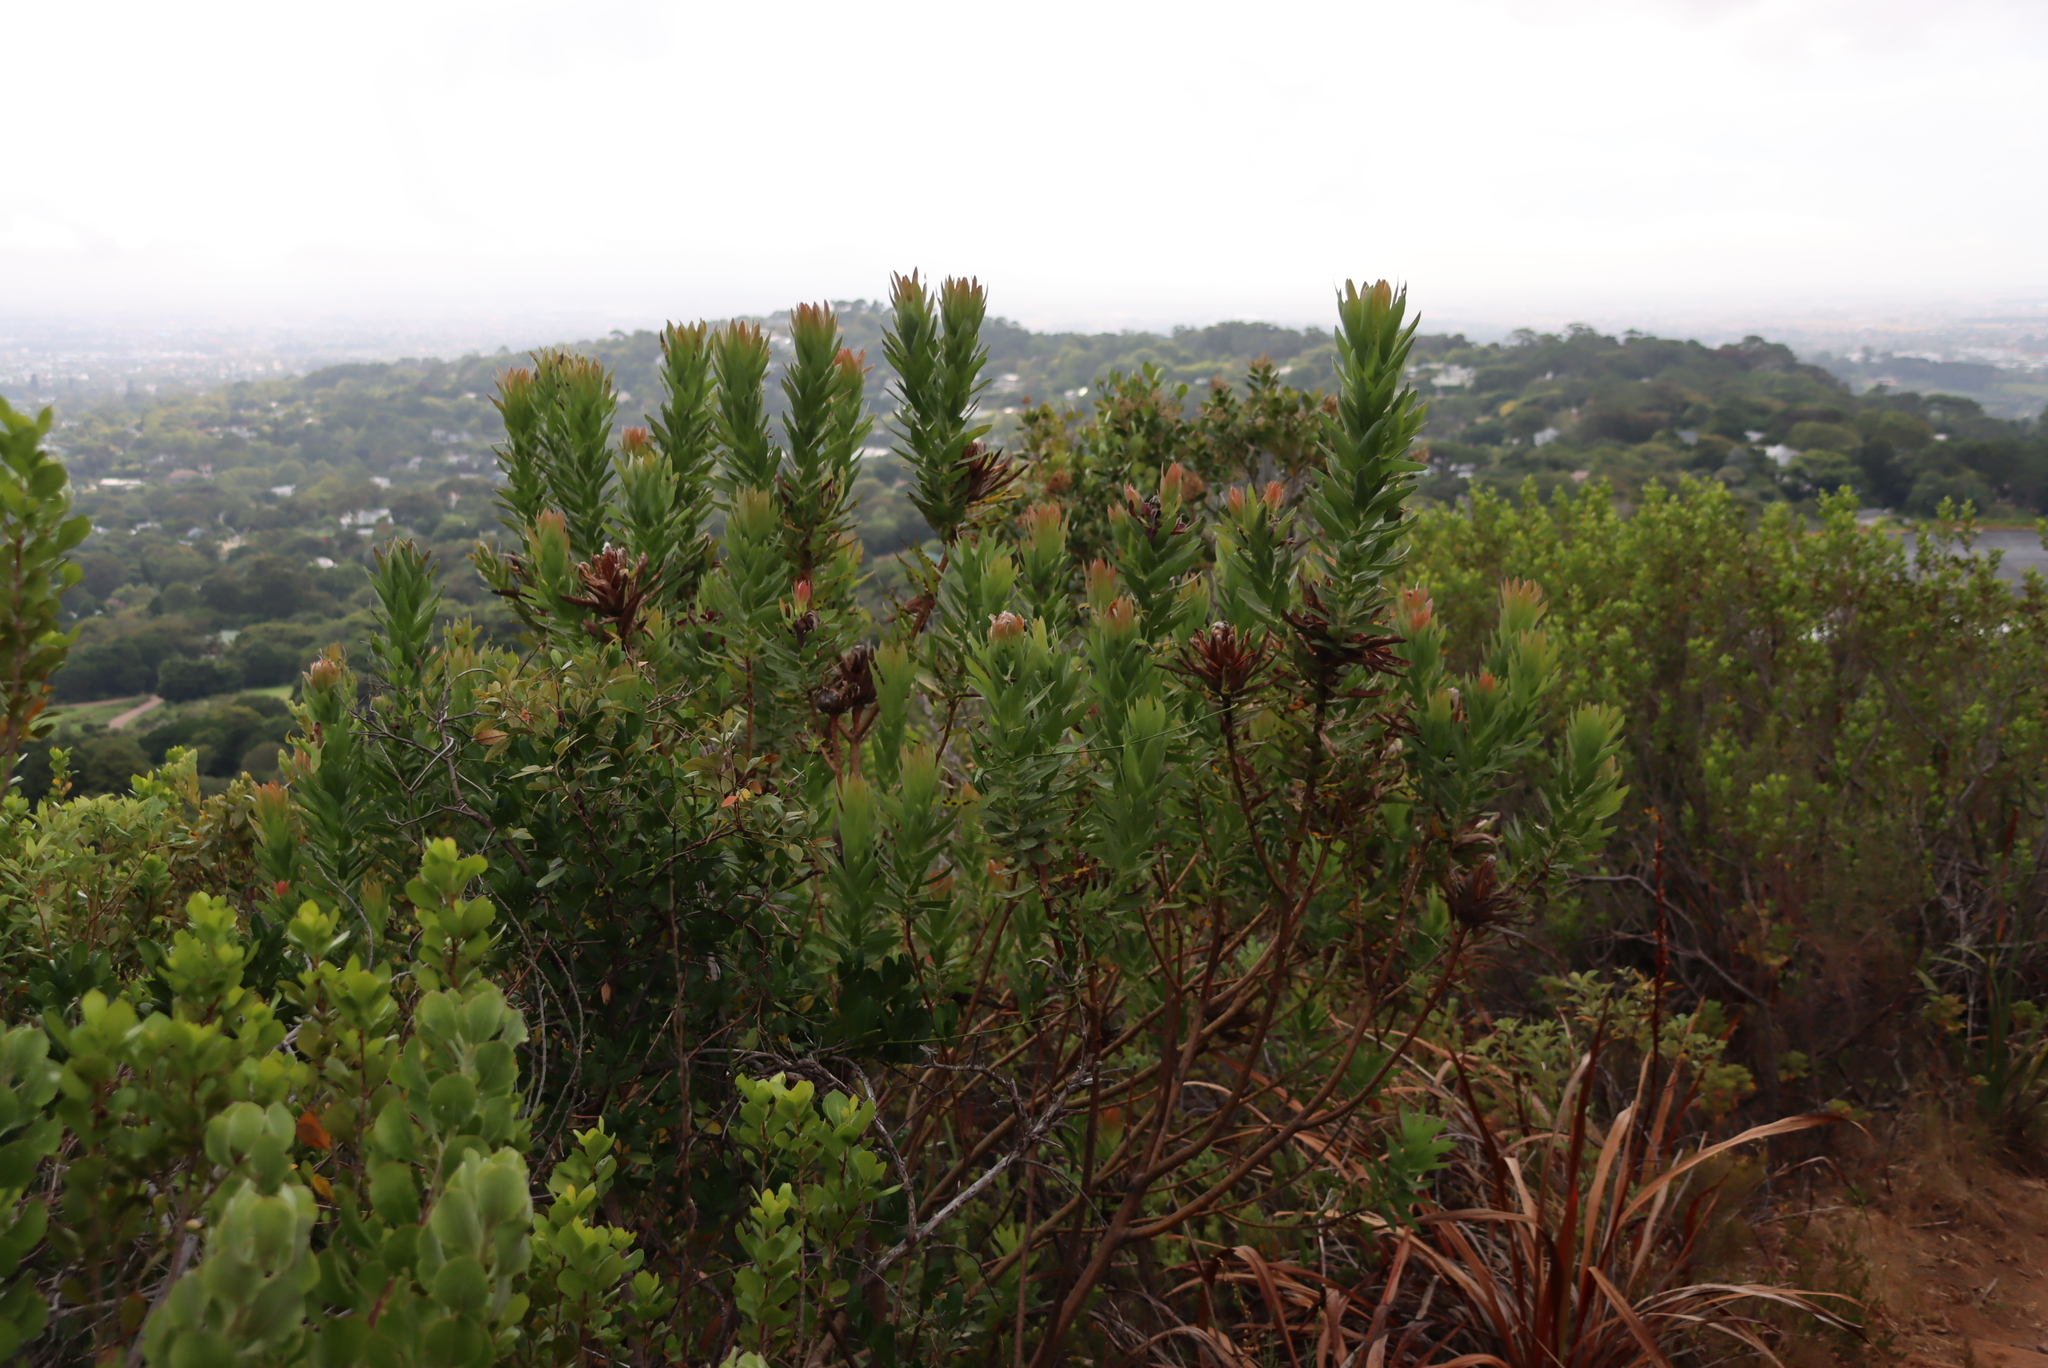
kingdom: Plantae
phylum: Tracheophyta
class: Magnoliopsida
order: Proteales
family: Proteaceae
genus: Protea
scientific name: Protea coronata
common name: Green sugarbush
